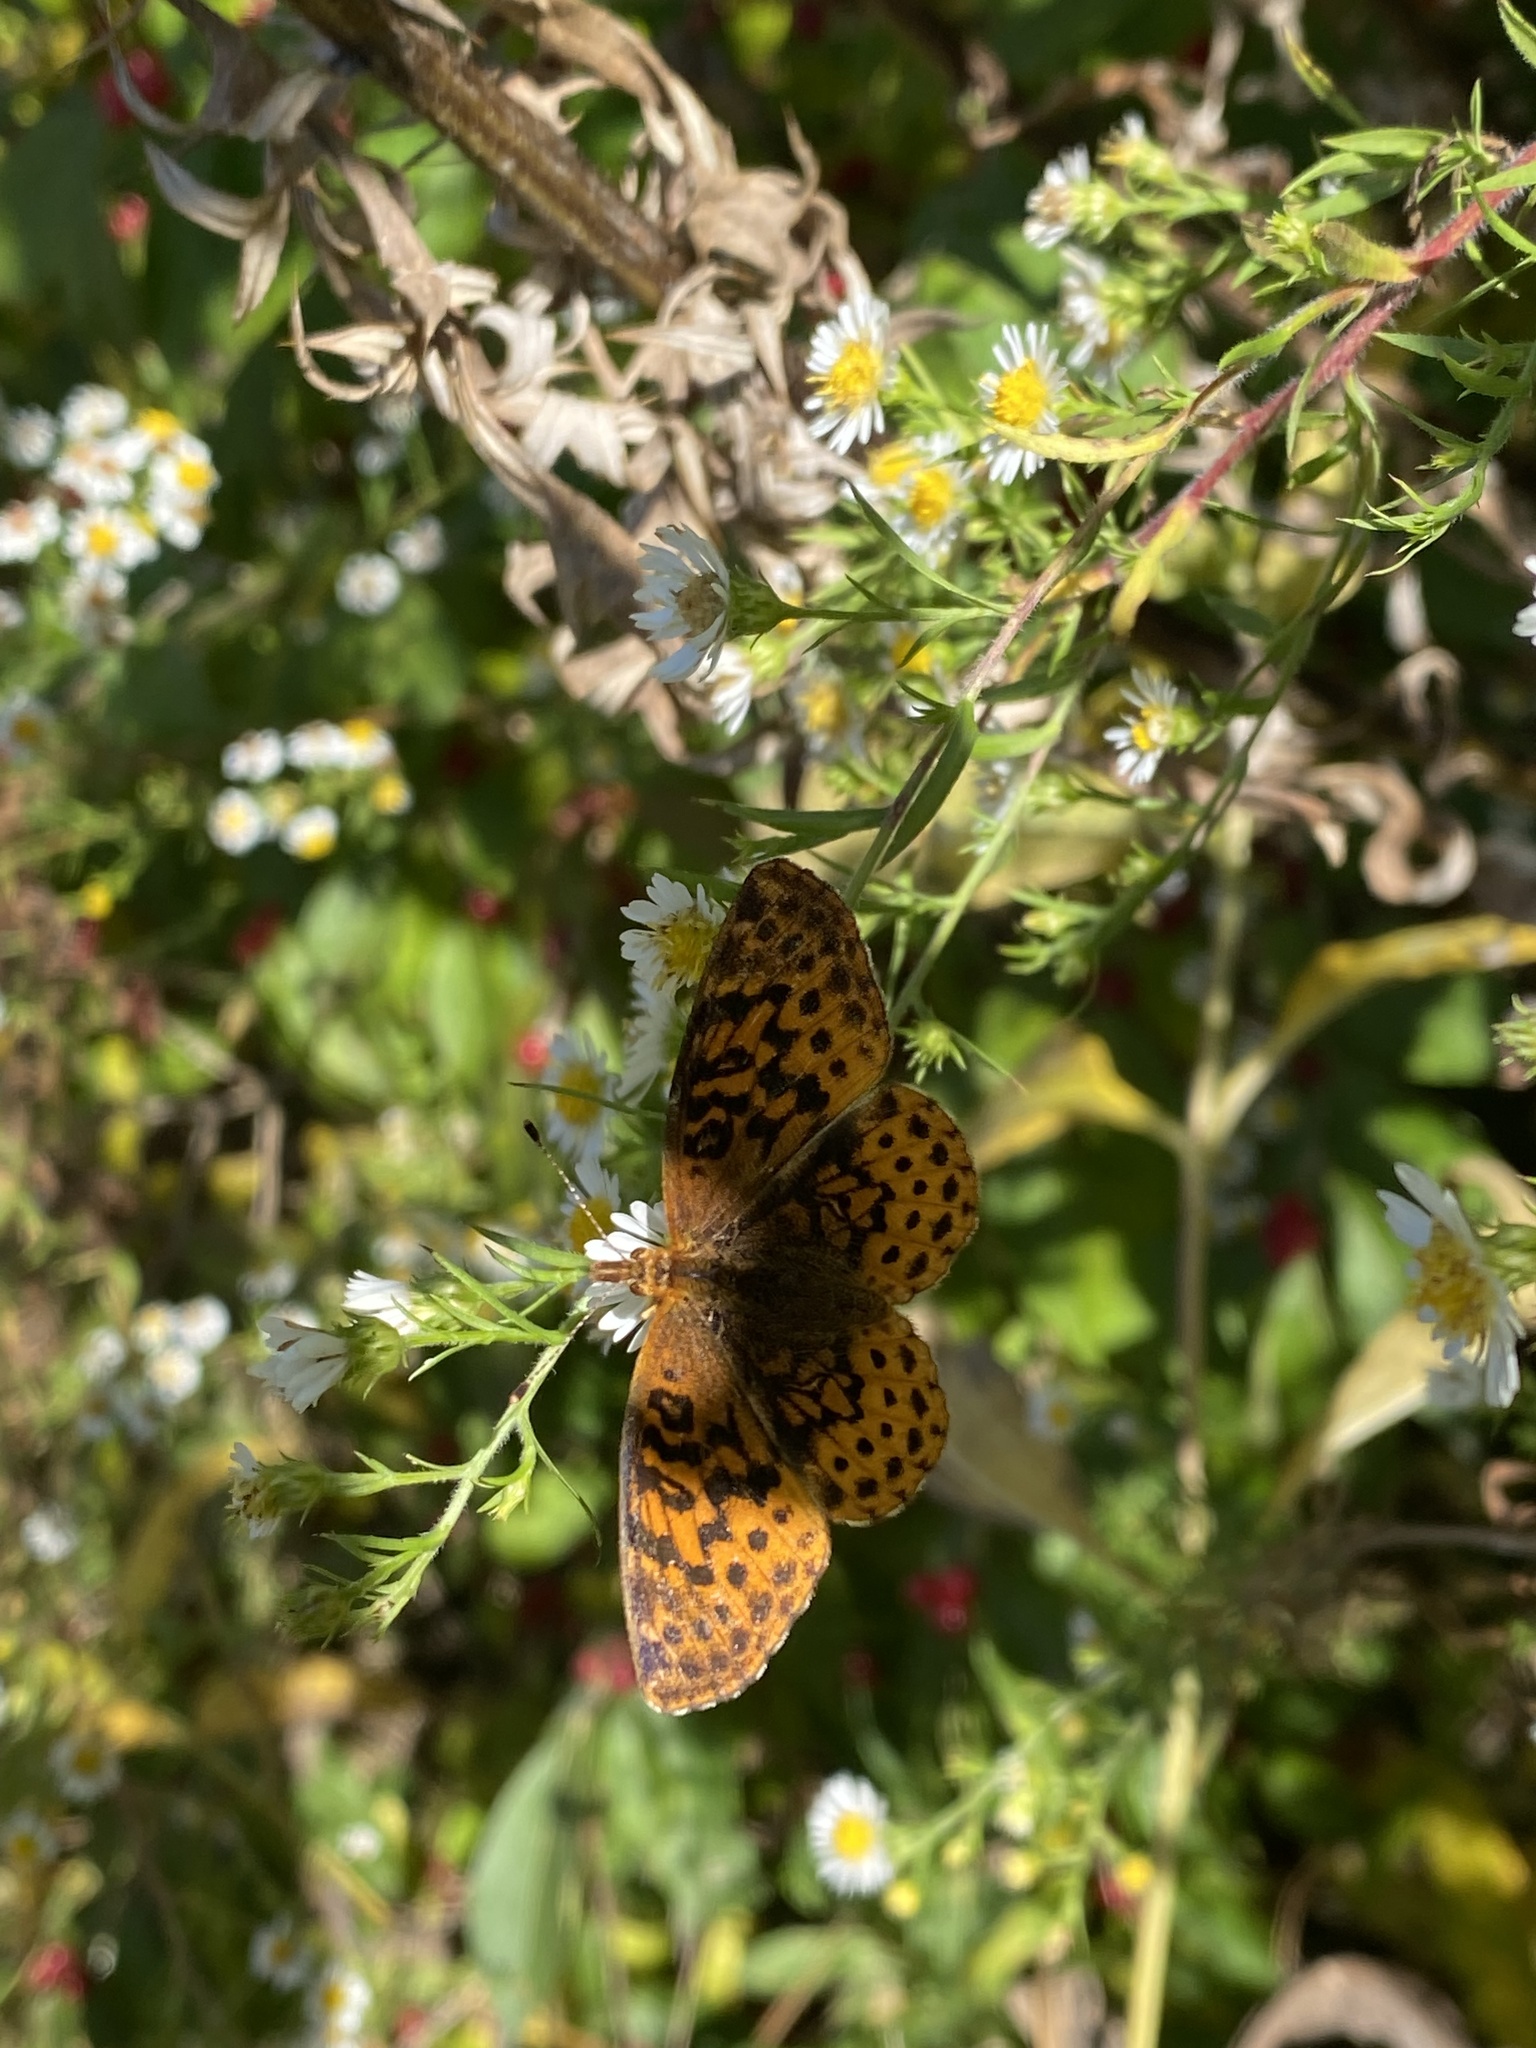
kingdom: Animalia
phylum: Arthropoda
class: Insecta
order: Lepidoptera
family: Nymphalidae
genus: Clossiana
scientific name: Clossiana toddi
